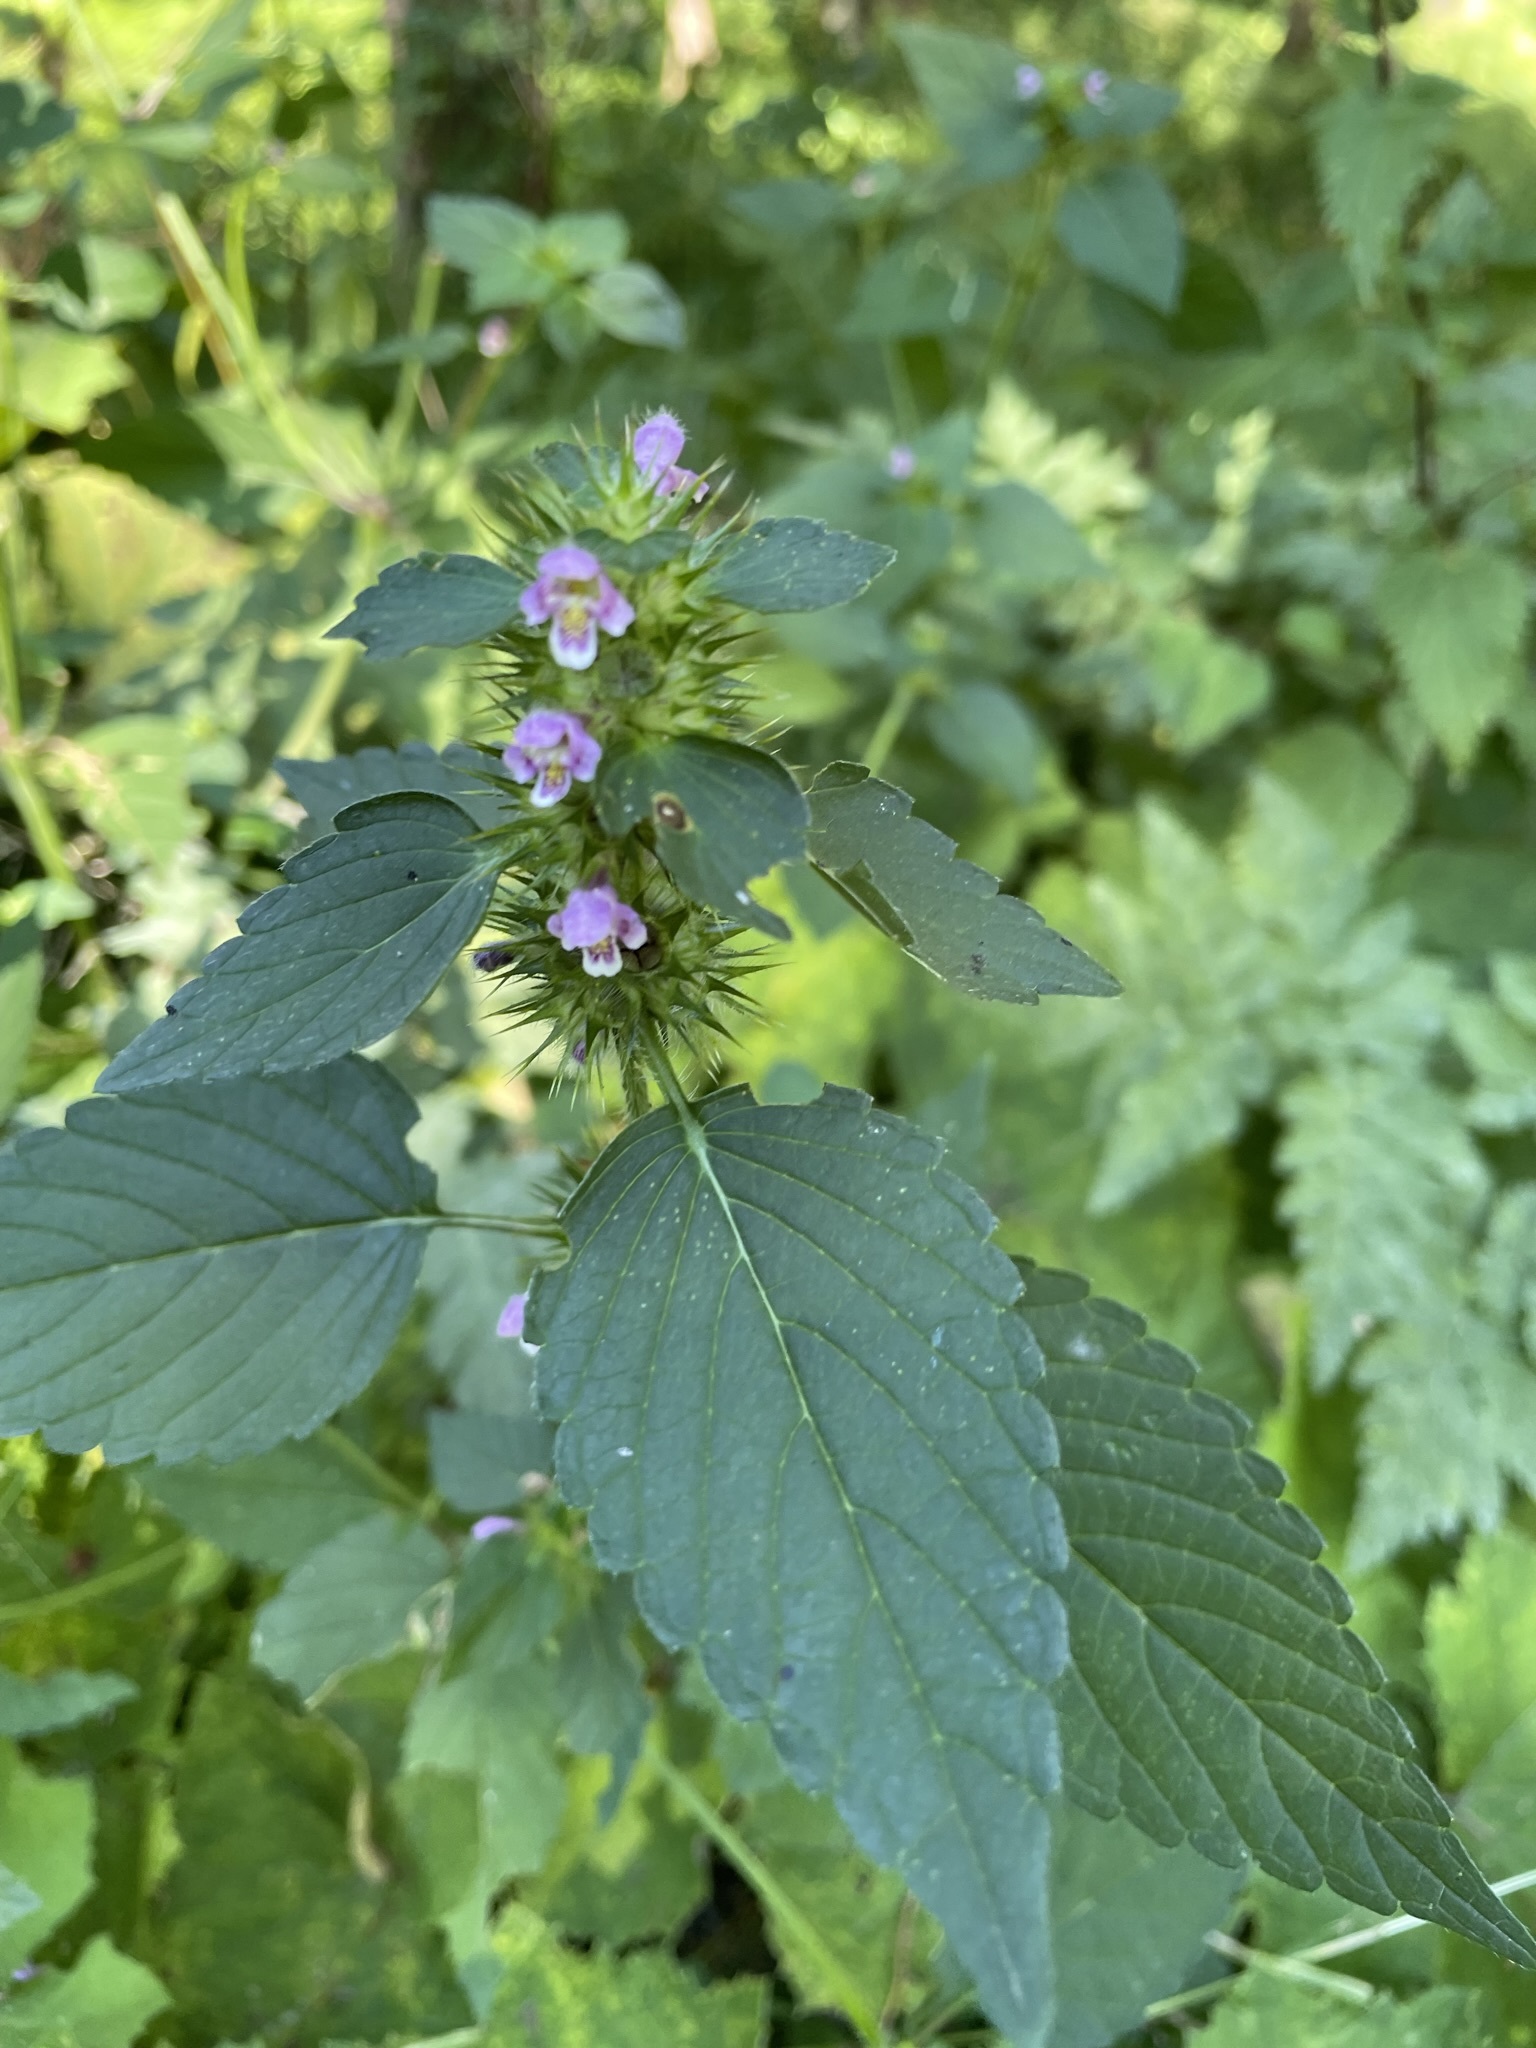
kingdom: Plantae
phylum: Tracheophyta
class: Magnoliopsida
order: Lamiales
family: Lamiaceae
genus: Galeopsis
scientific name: Galeopsis tetrahit
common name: Common hemp-nettle
